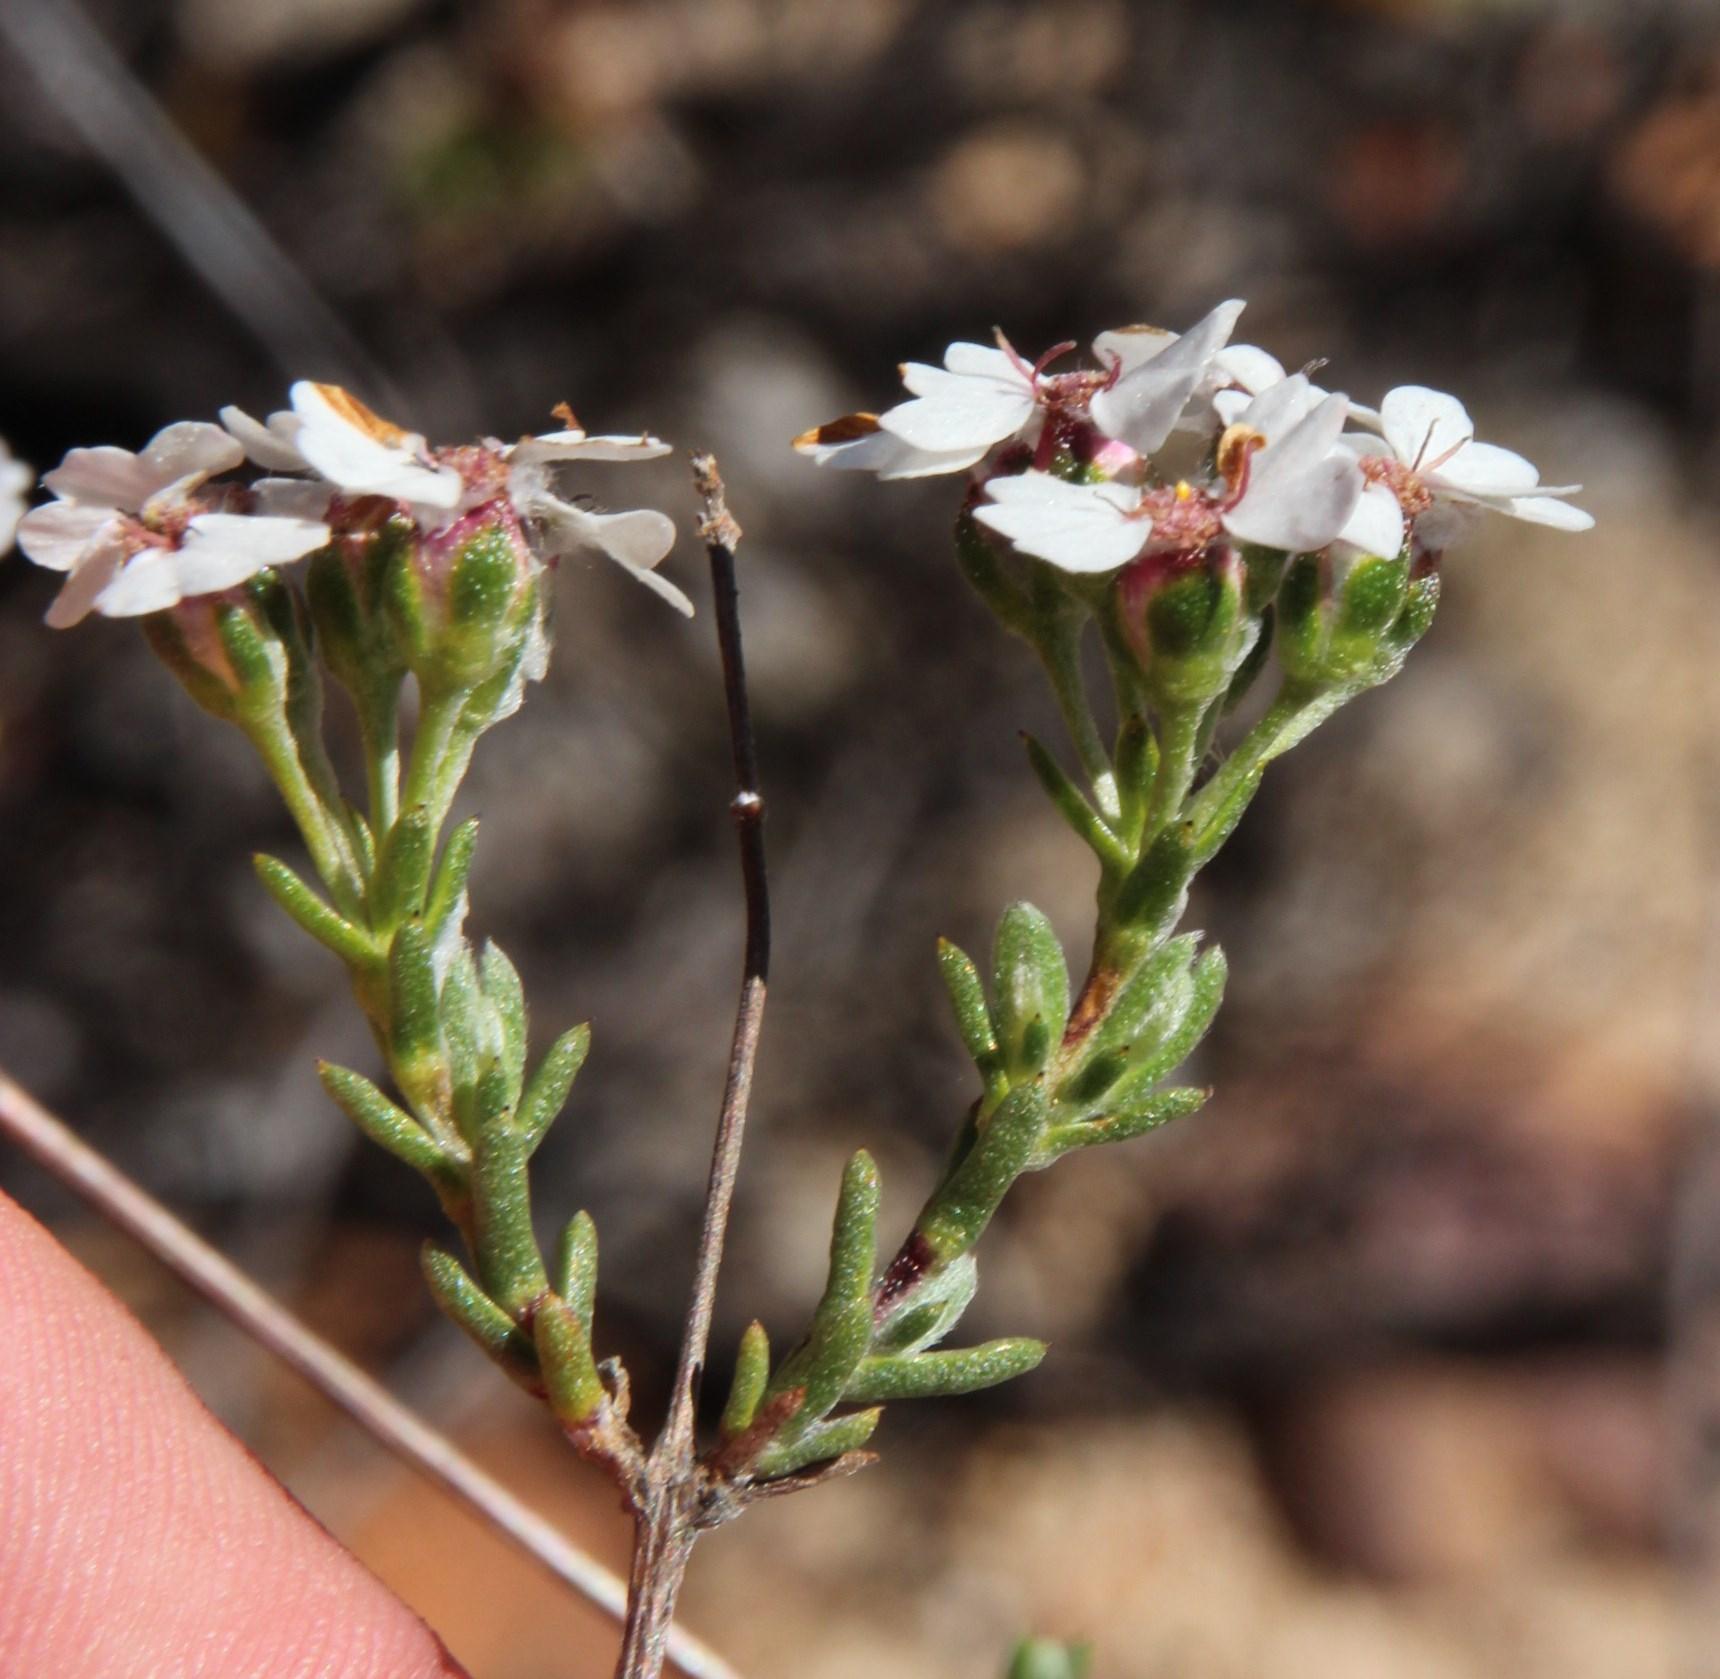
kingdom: Plantae
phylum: Tracheophyta
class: Magnoliopsida
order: Asterales
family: Asteraceae
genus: Eriocephalus
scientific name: Eriocephalus aromaticus
